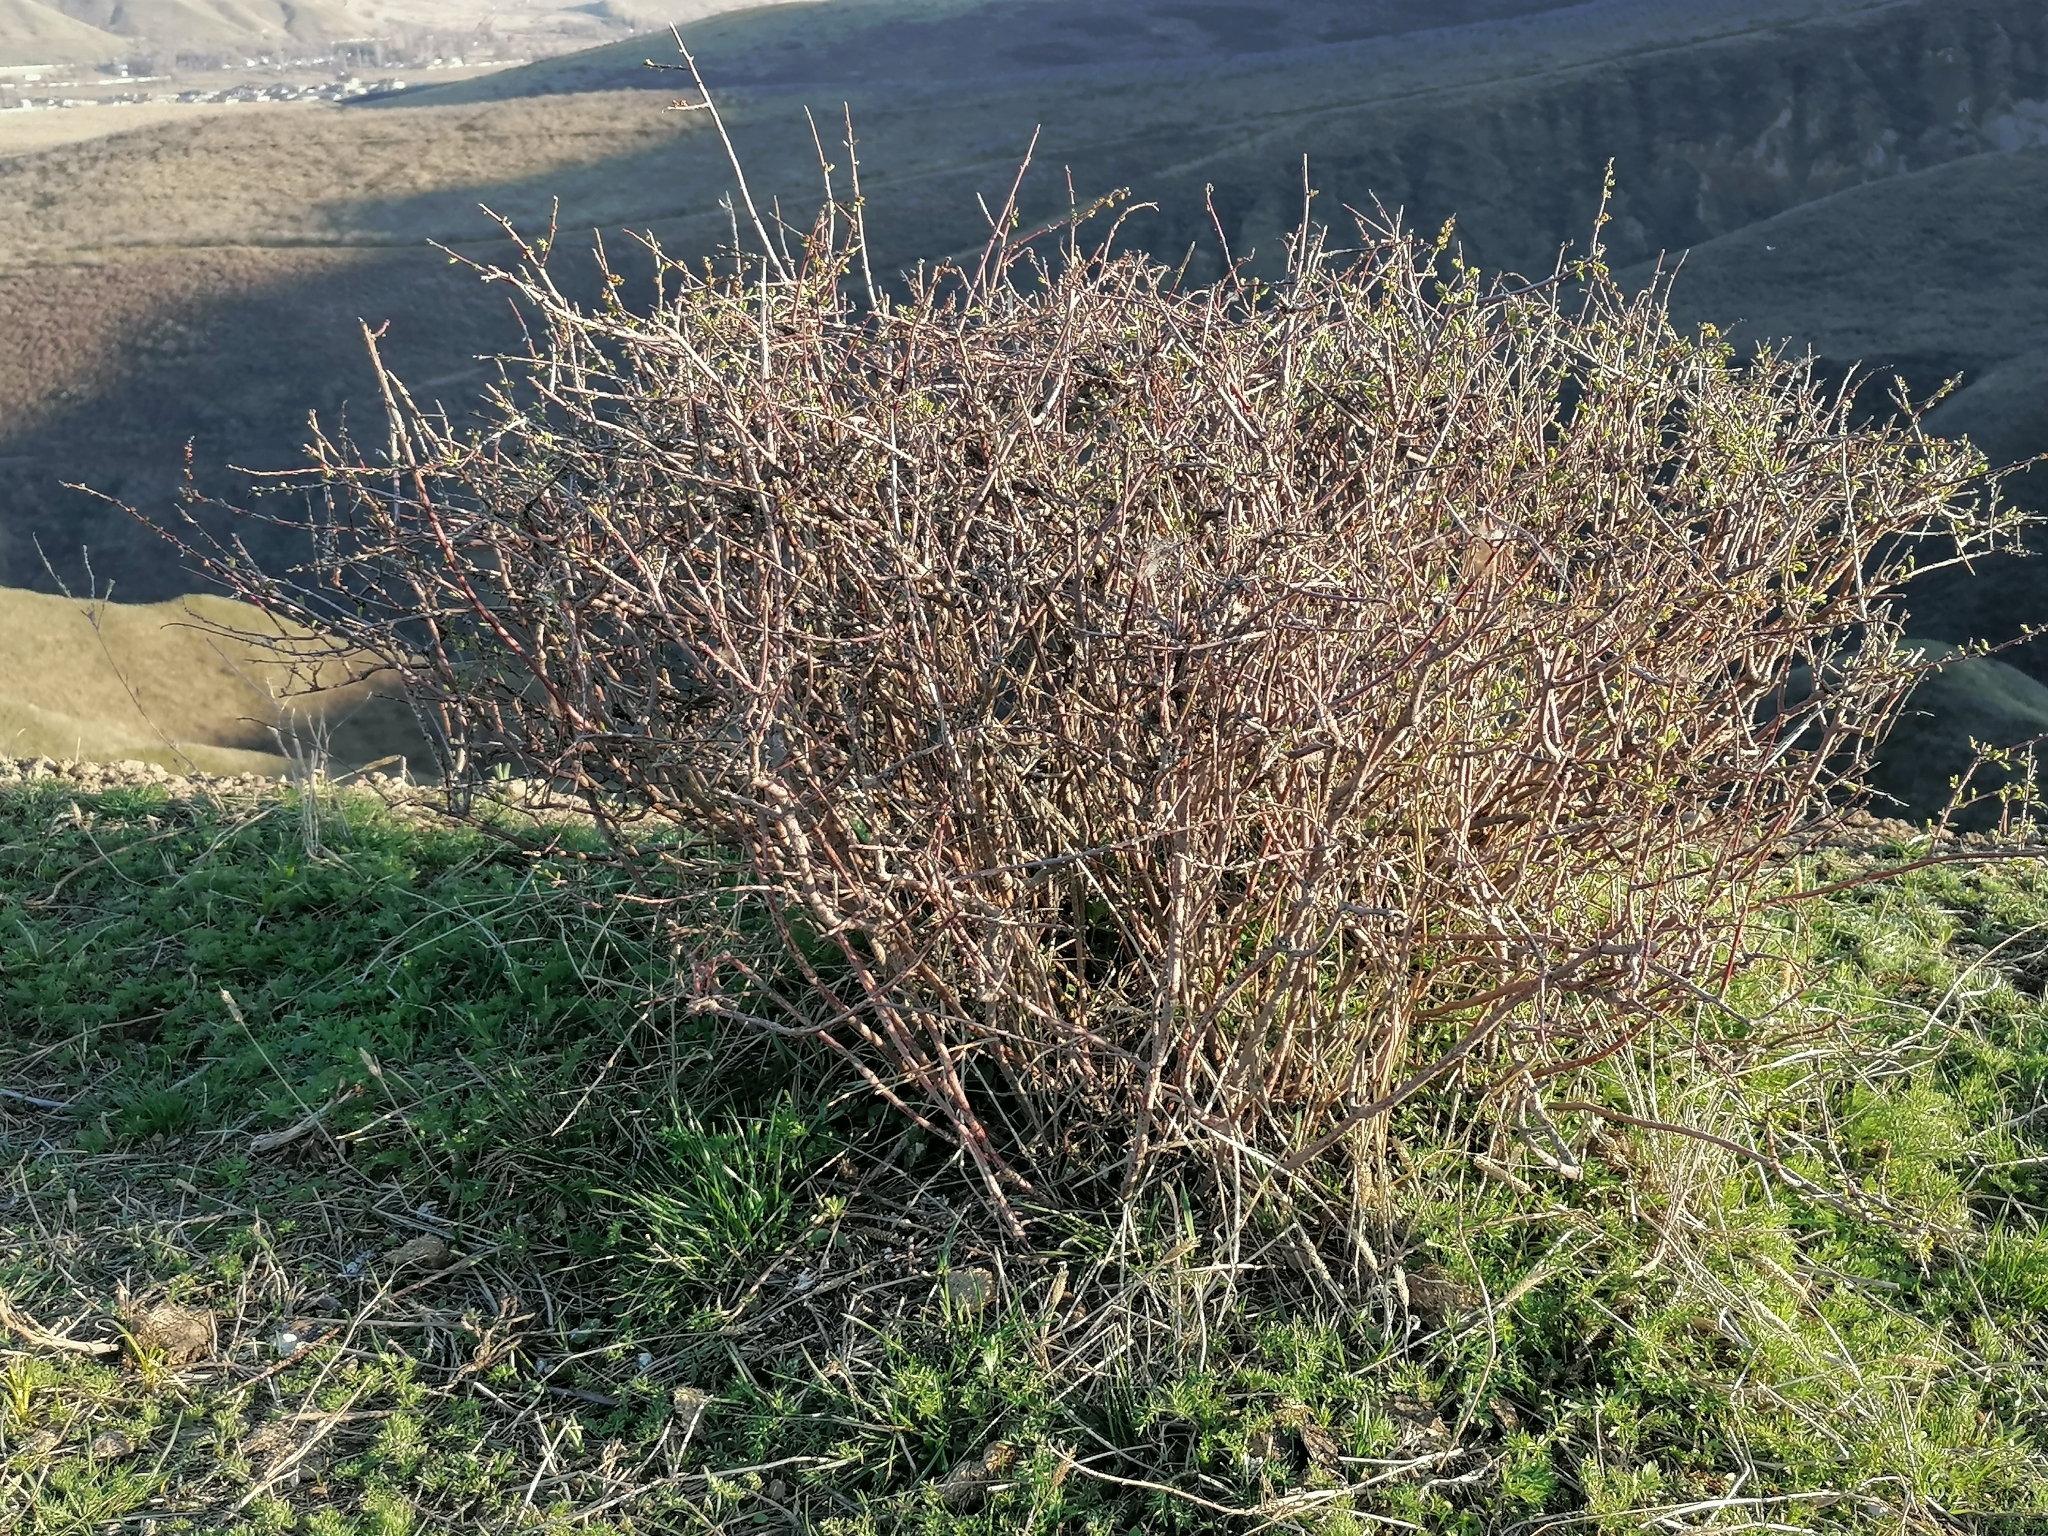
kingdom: Plantae
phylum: Tracheophyta
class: Magnoliopsida
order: Rosales
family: Rosaceae
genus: Spiraea
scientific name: Spiraea hypericifolia
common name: Iberian spirea
